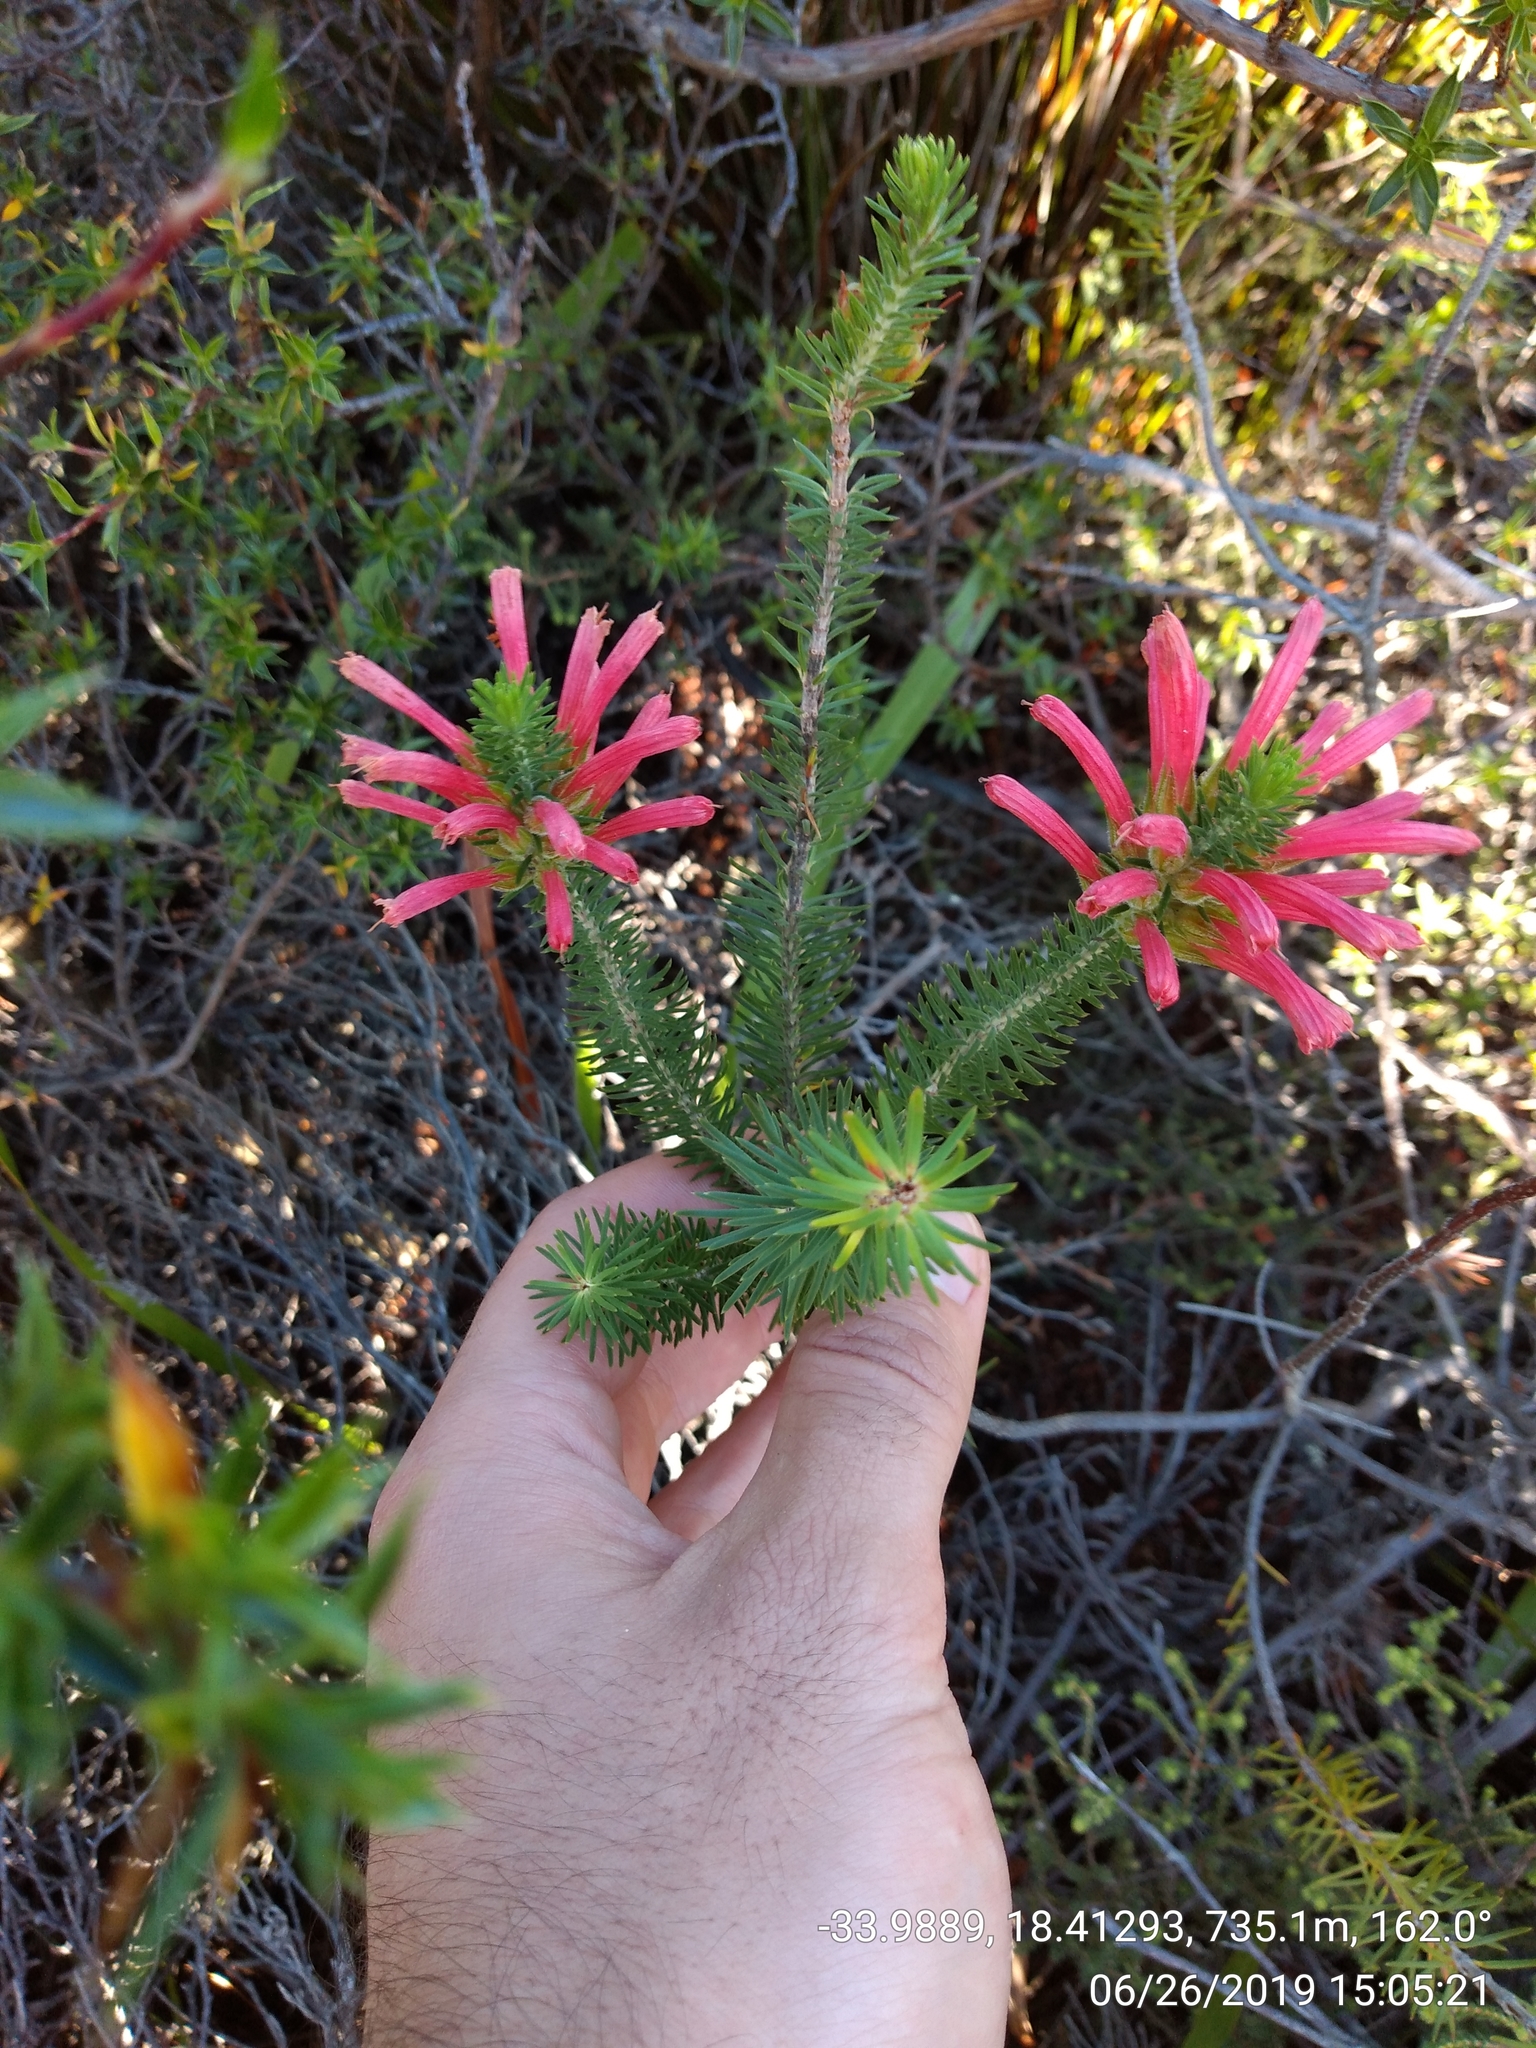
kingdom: Plantae
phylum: Tracheophyta
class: Magnoliopsida
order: Ericales
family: Ericaceae
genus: Erica
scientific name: Erica abietina
